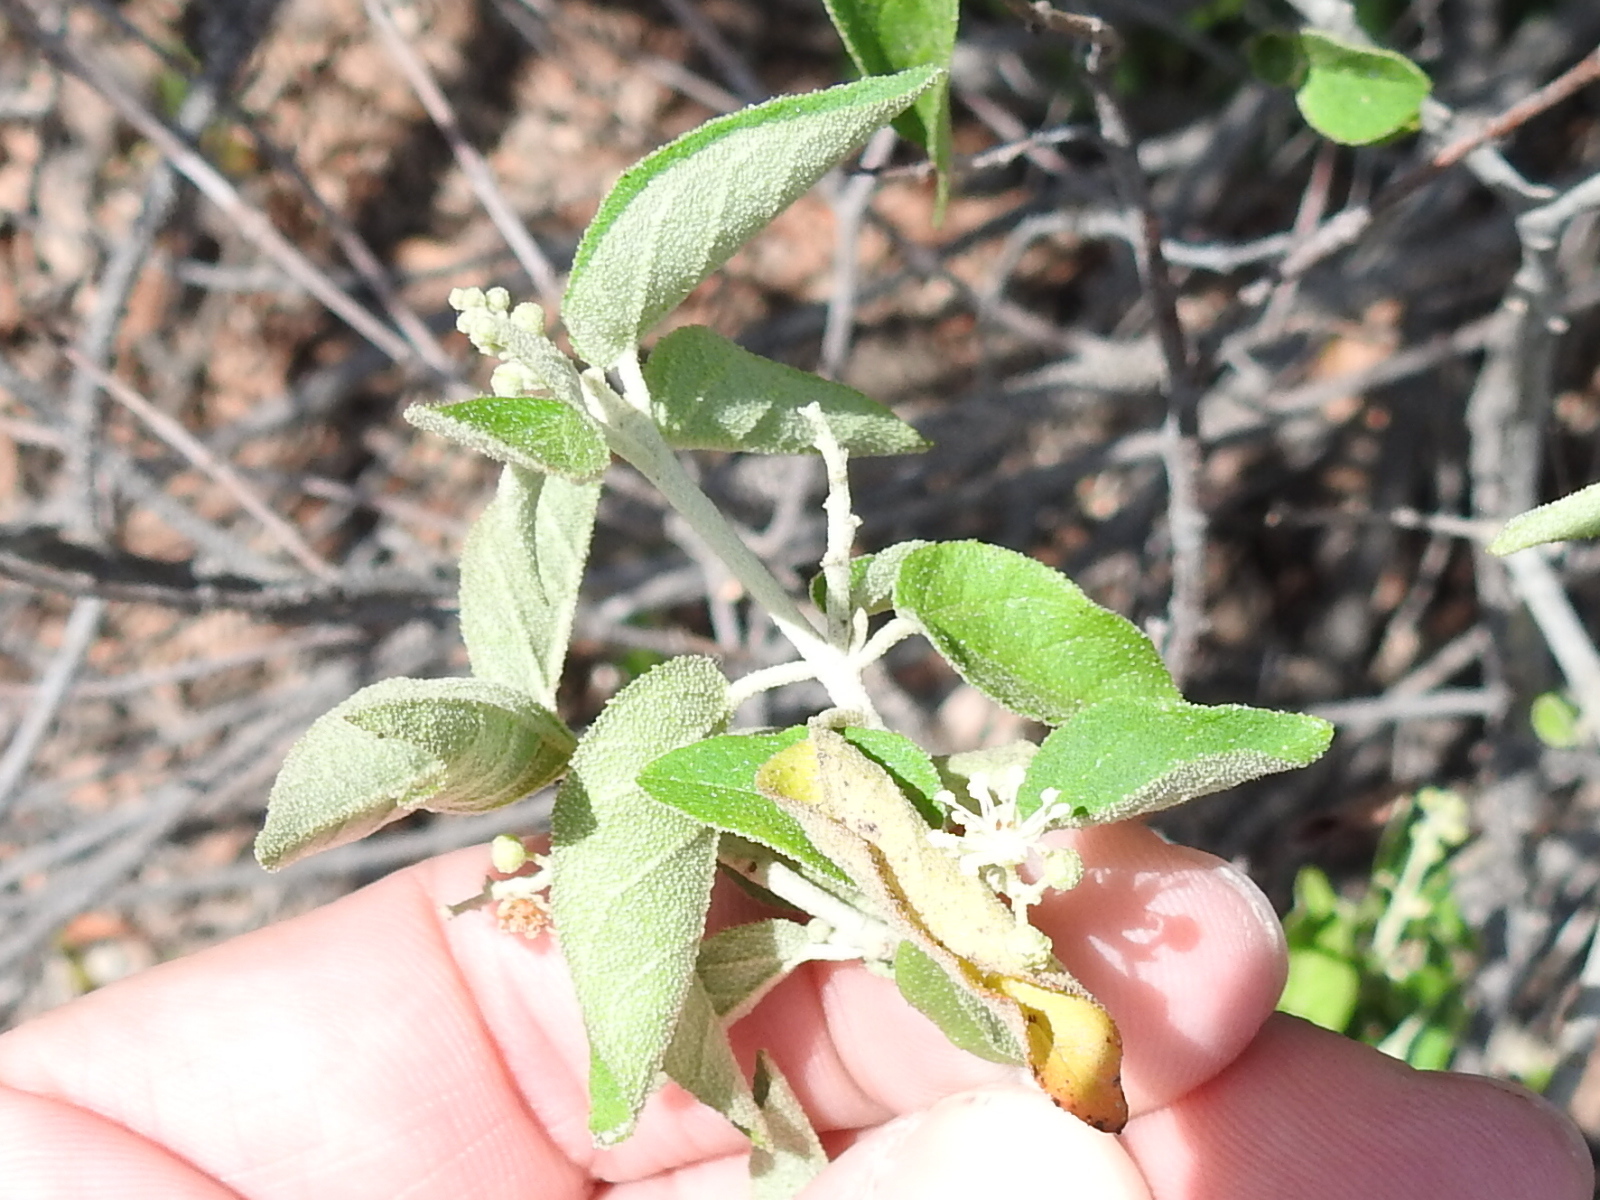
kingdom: Plantae
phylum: Tracheophyta
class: Magnoliopsida
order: Malpighiales
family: Euphorbiaceae
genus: Croton
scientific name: Croton fruticulosus
